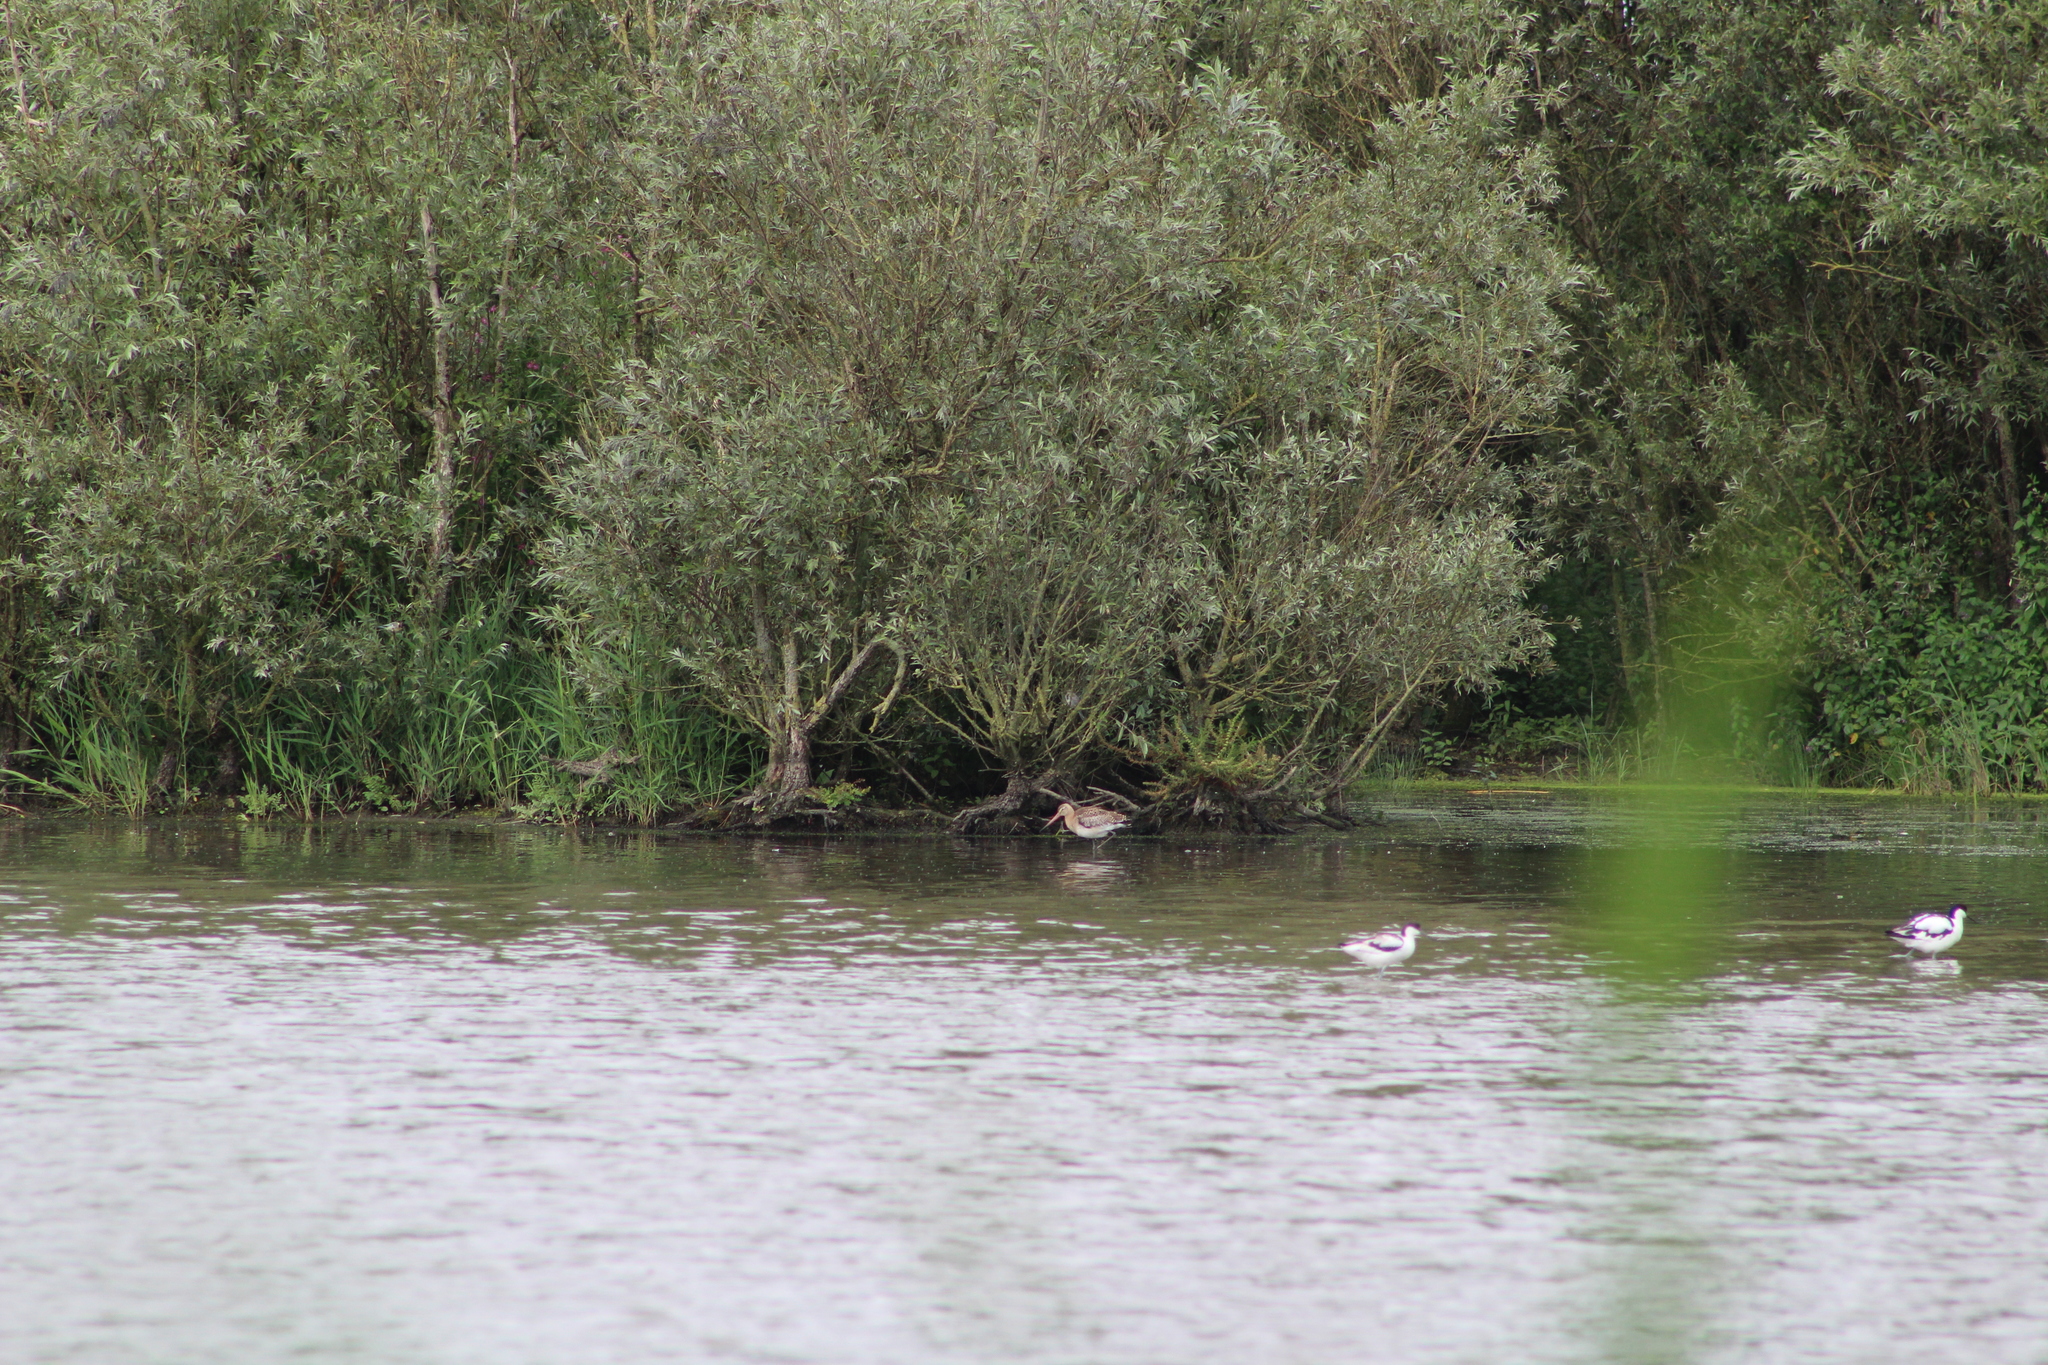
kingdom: Animalia
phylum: Chordata
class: Aves
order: Charadriiformes
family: Scolopacidae
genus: Limosa
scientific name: Limosa limosa
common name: Black-tailed godwit
